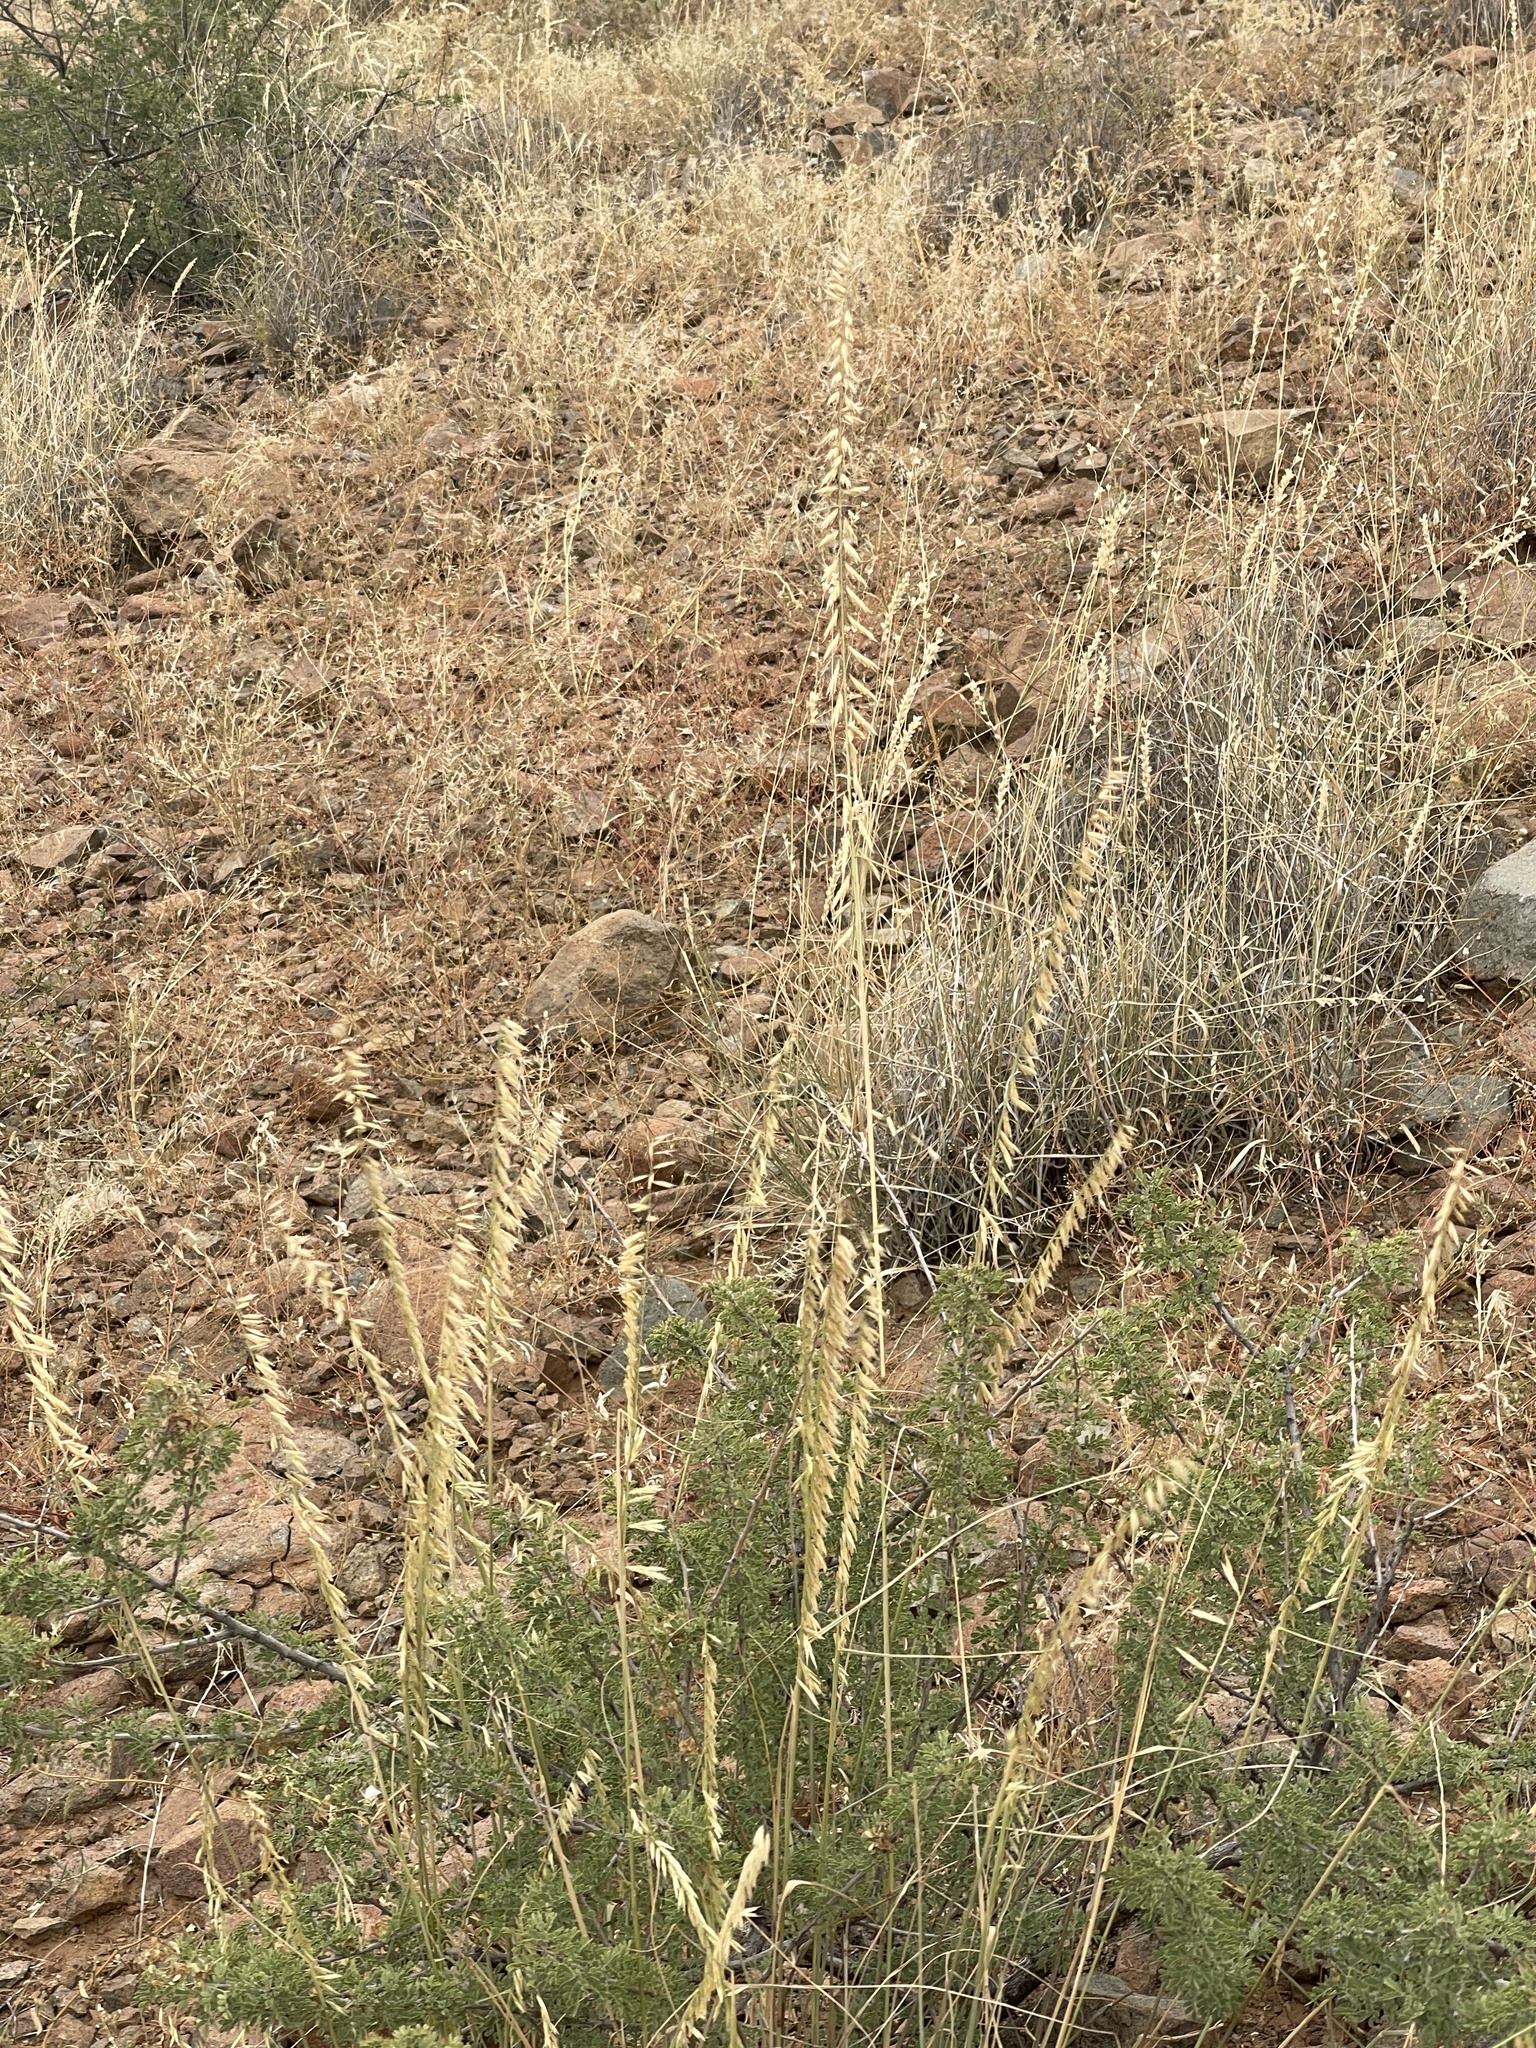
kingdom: Plantae
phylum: Tracheophyta
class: Liliopsida
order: Poales
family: Poaceae
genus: Bouteloua
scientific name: Bouteloua curtipendula
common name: Side-oats grama
